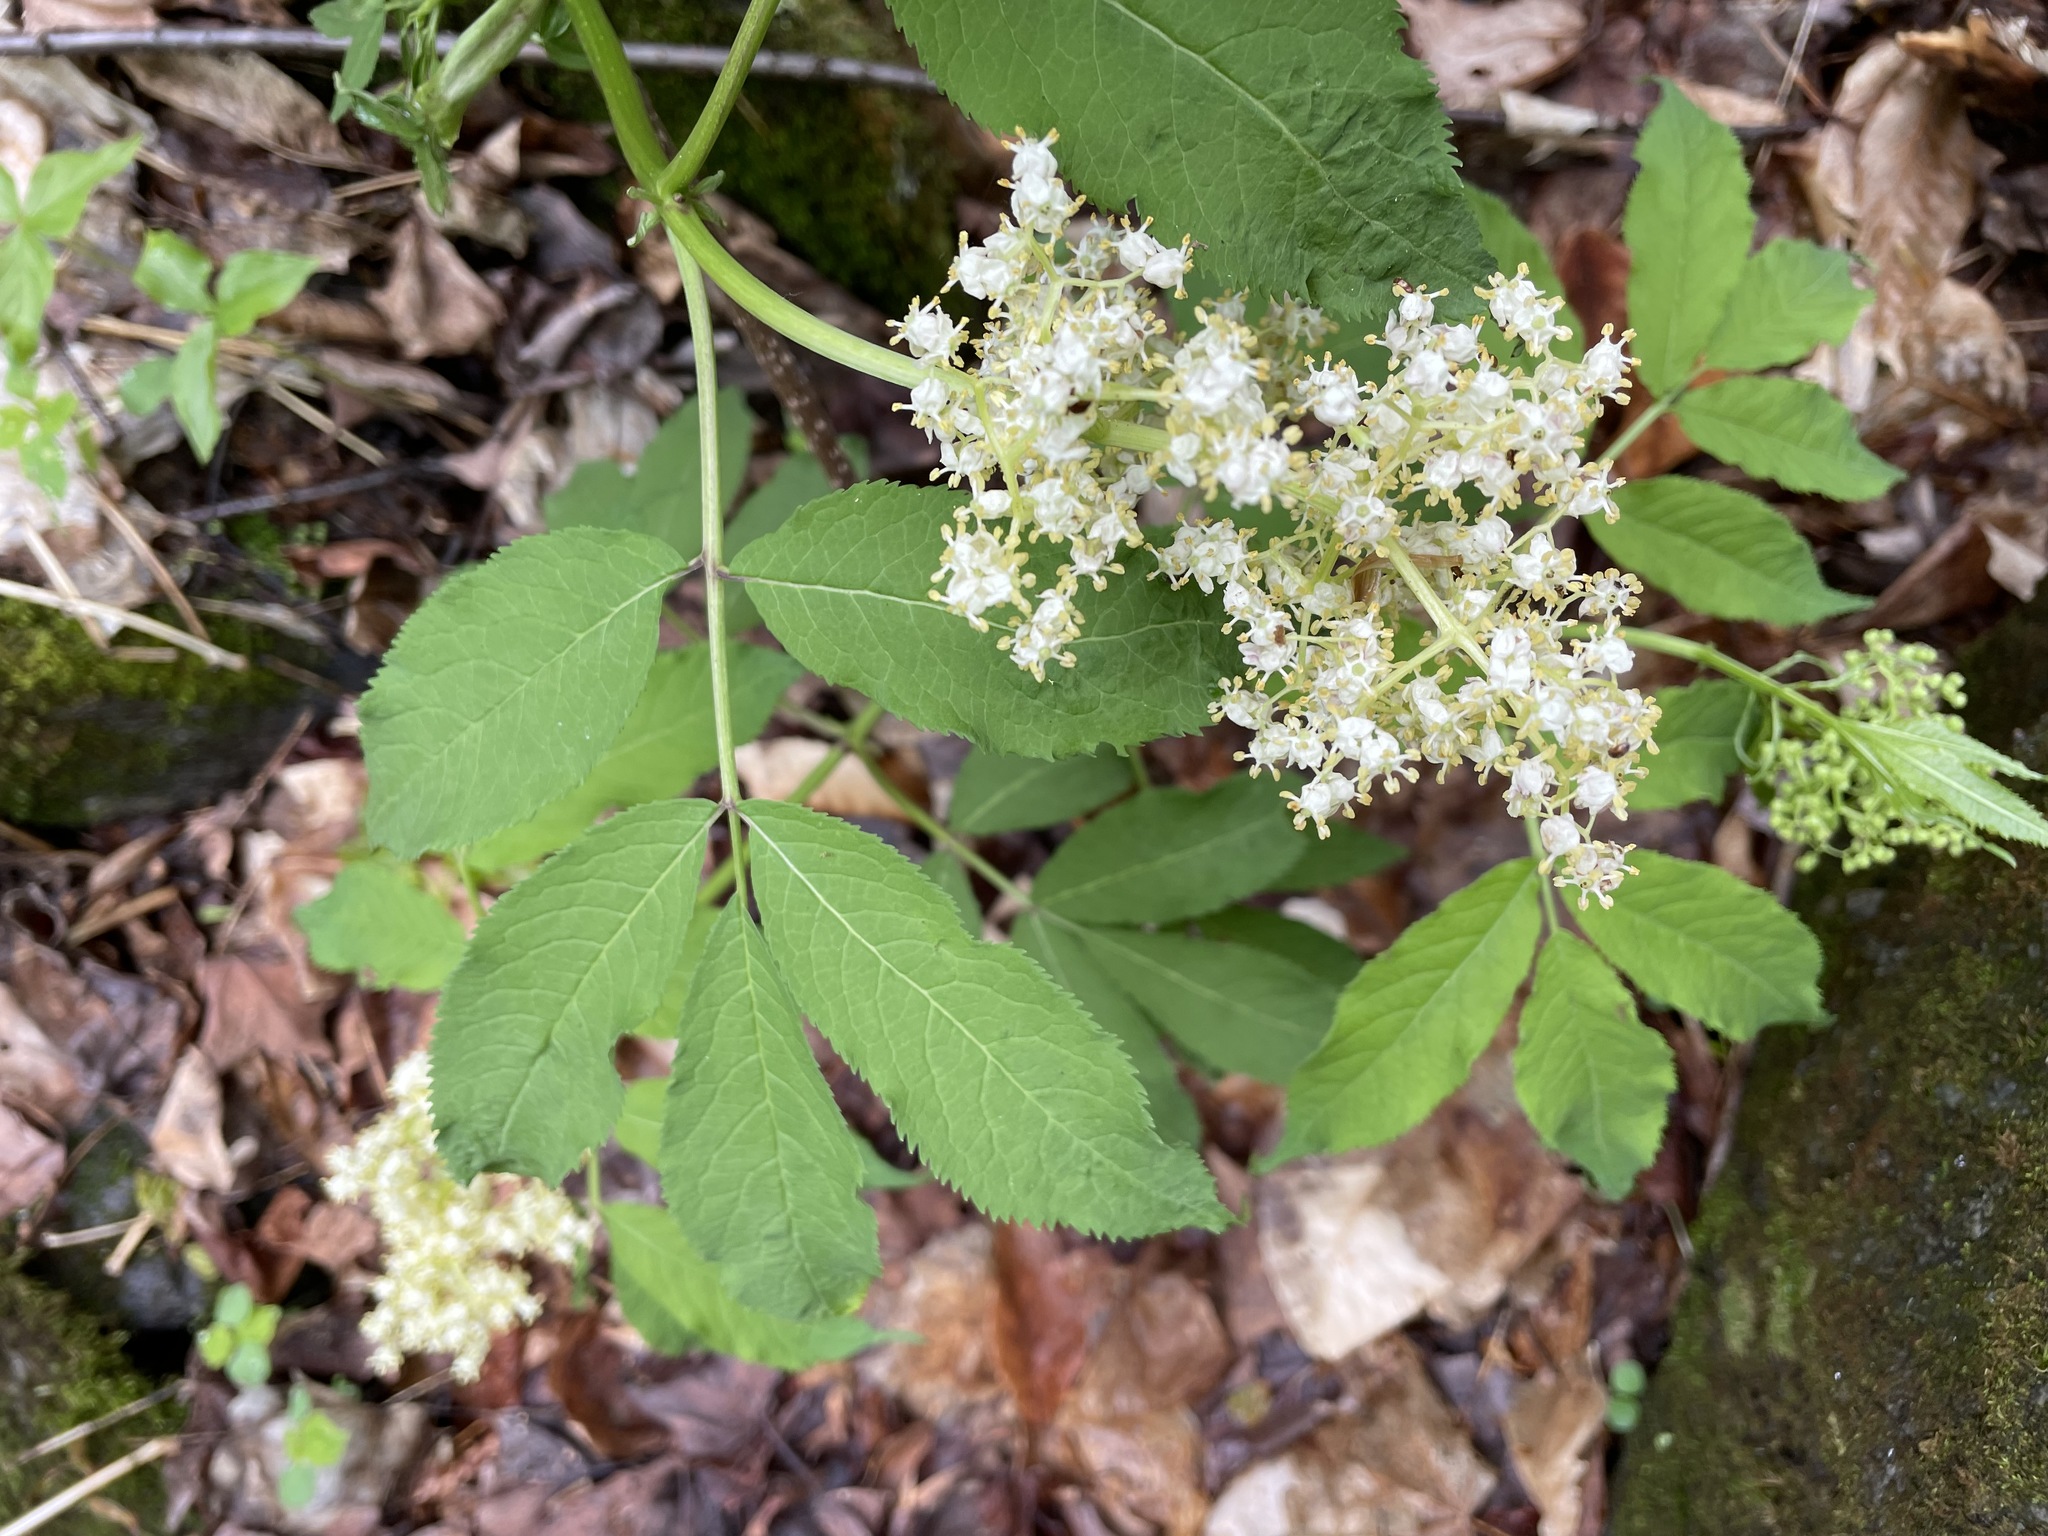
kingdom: Plantae
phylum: Tracheophyta
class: Magnoliopsida
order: Dipsacales
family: Viburnaceae
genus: Sambucus
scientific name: Sambucus racemosa
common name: Red-berried elder
